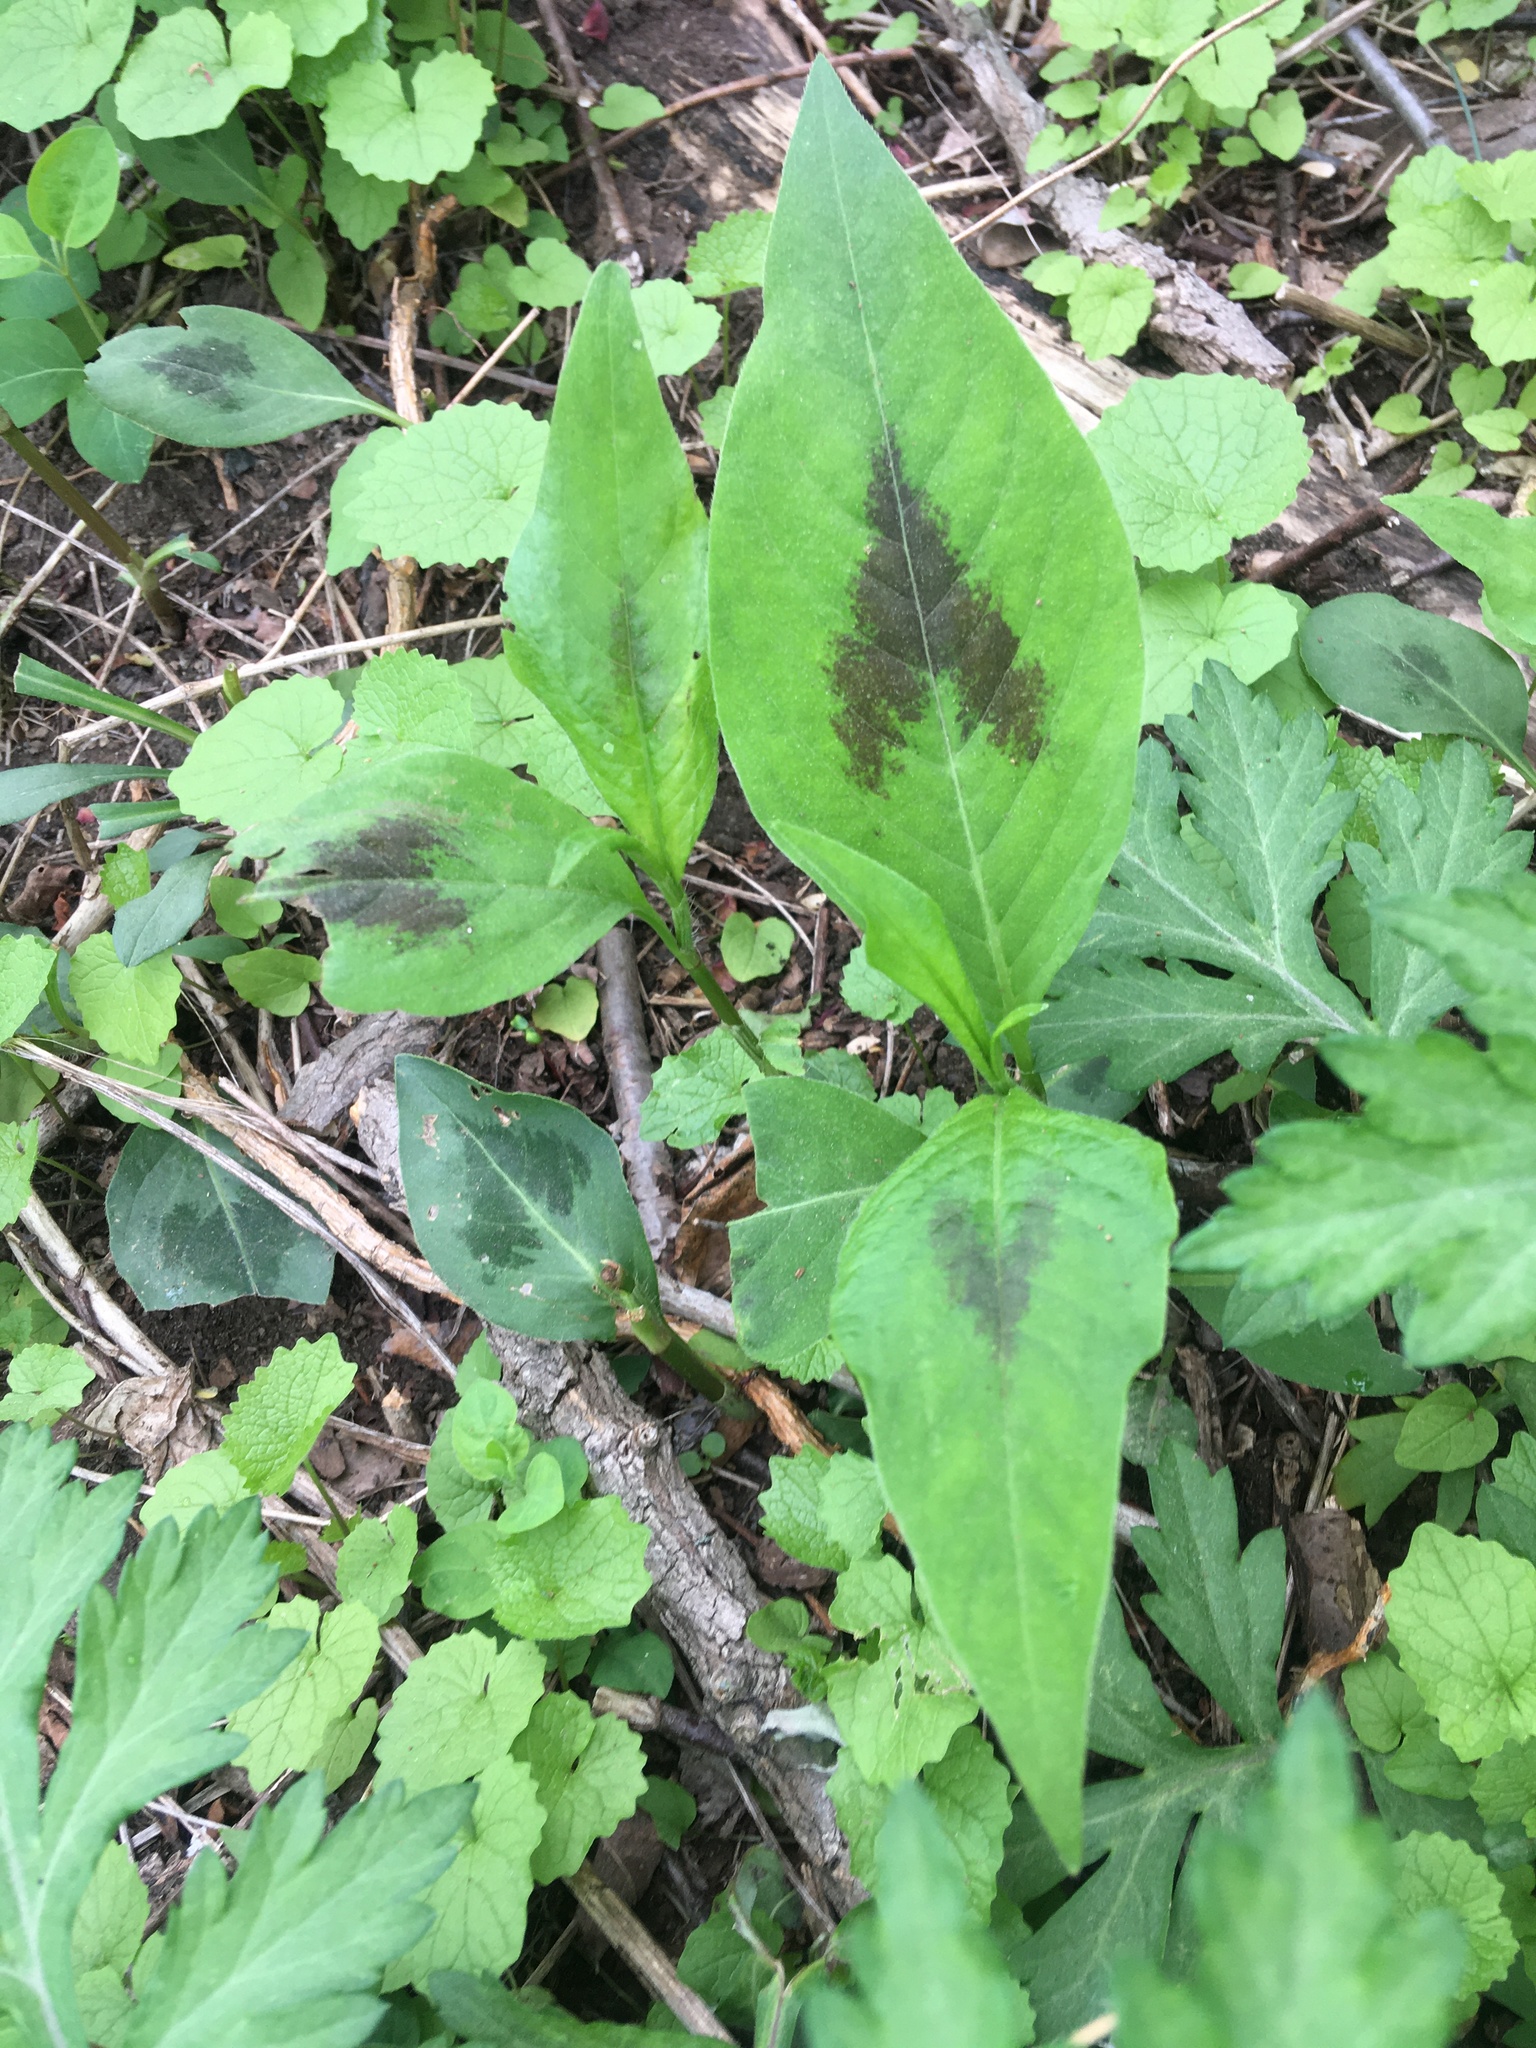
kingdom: Plantae
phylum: Tracheophyta
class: Magnoliopsida
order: Caryophyllales
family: Polygonaceae
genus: Persicaria
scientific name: Persicaria virginiana
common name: Jumpseed
